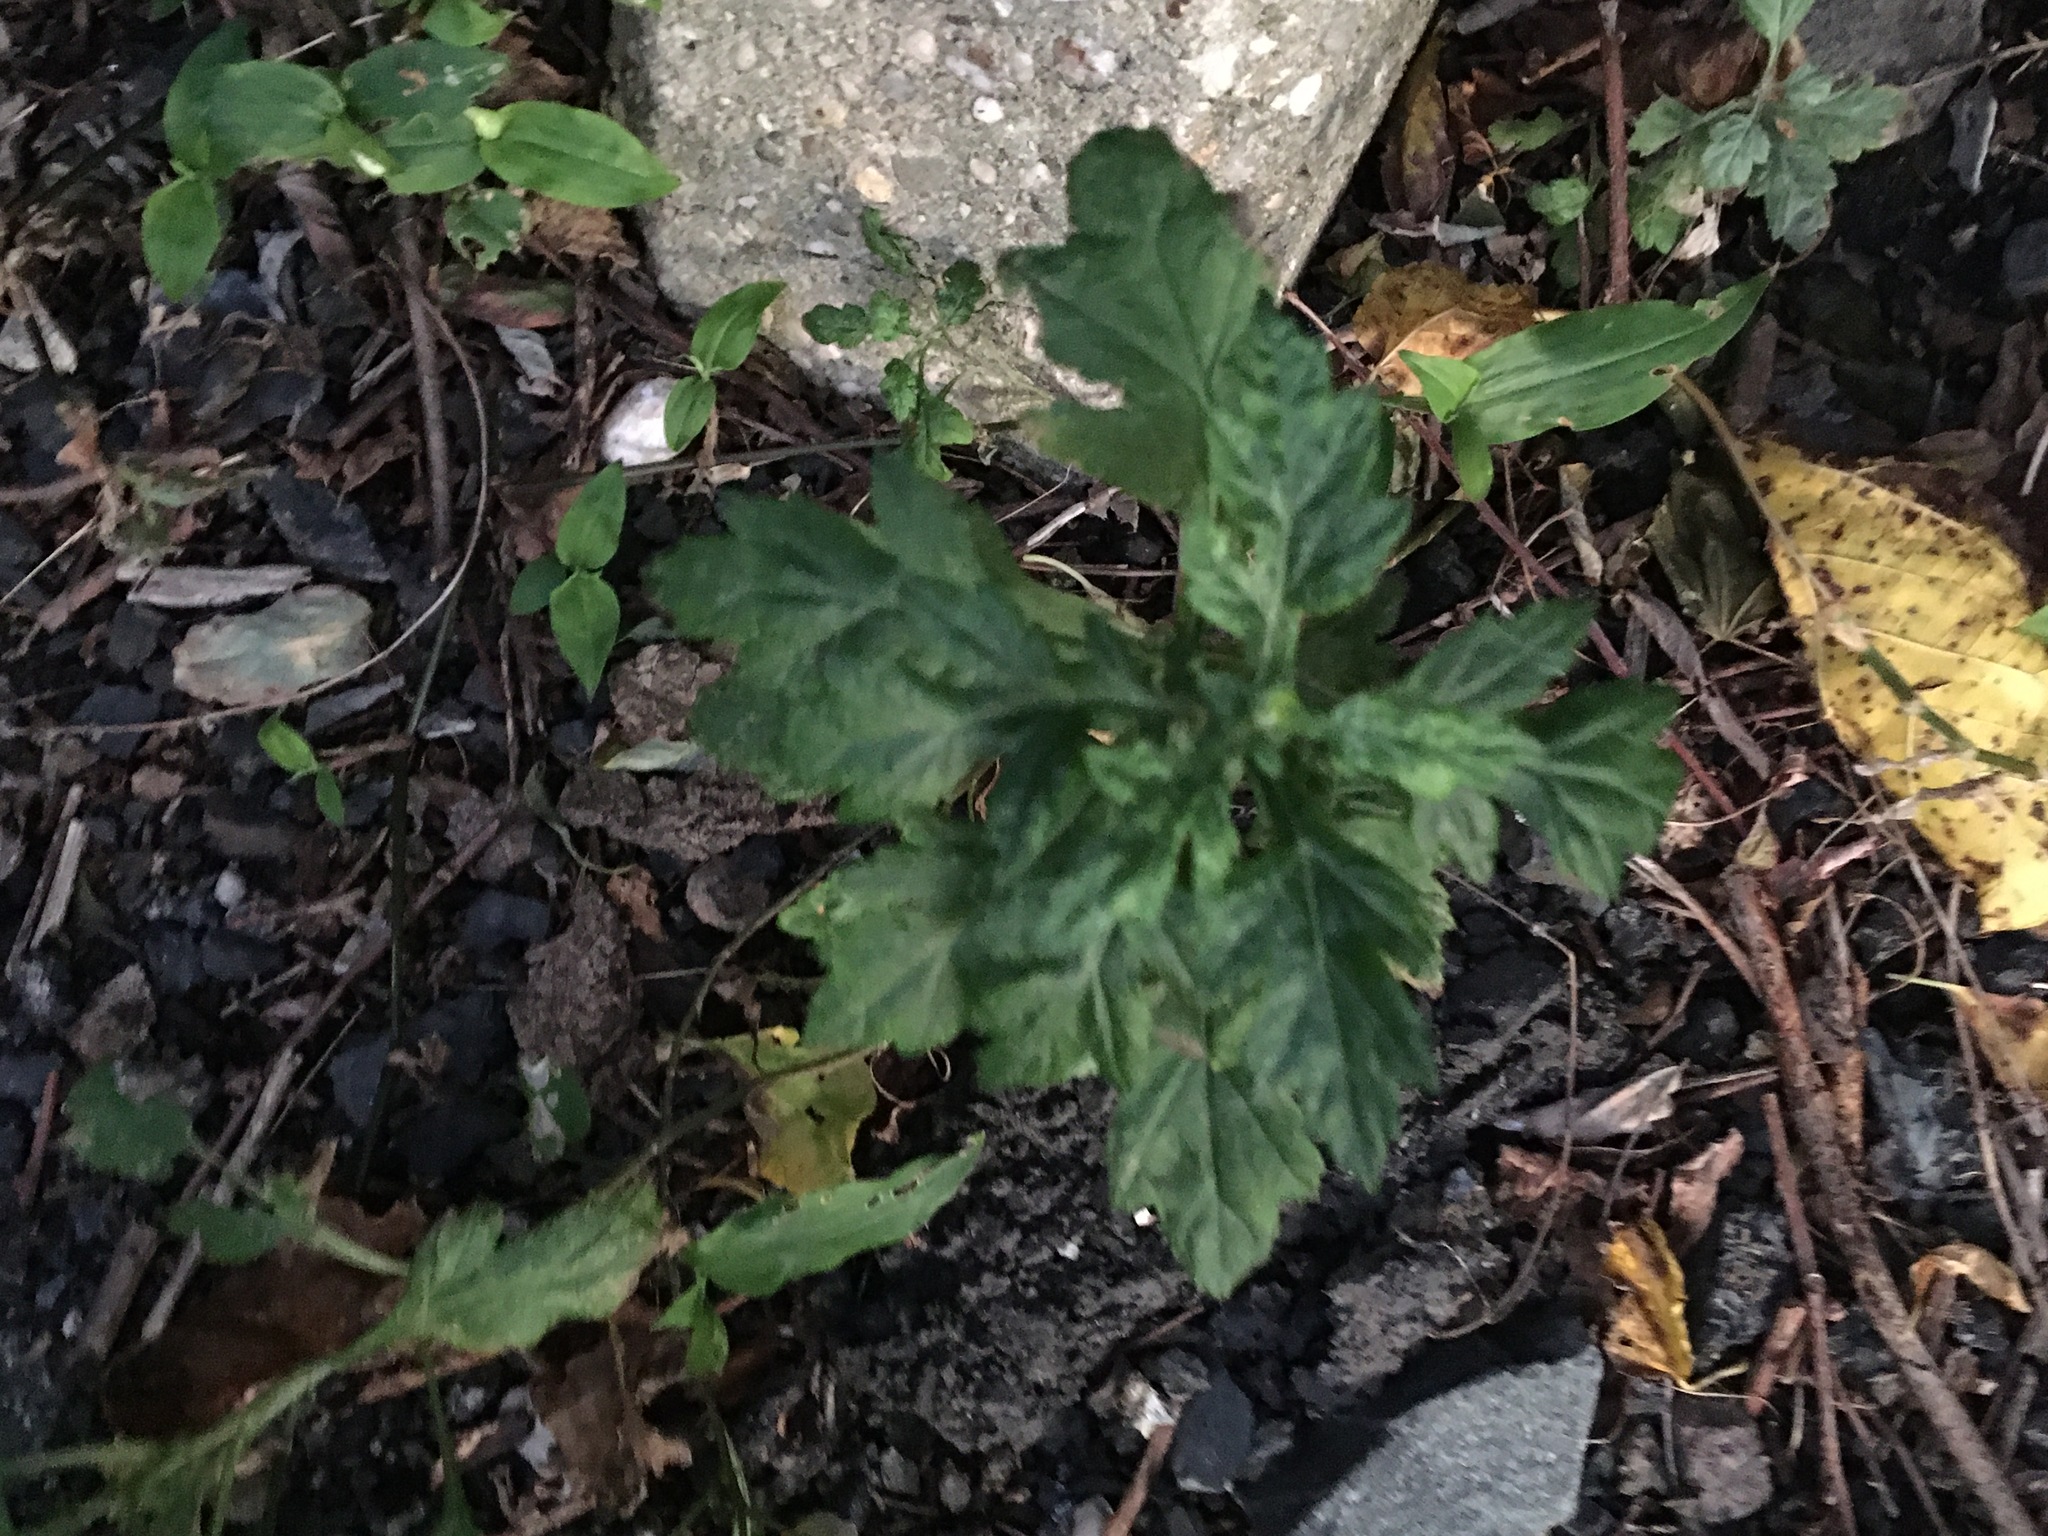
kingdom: Plantae
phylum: Tracheophyta
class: Magnoliopsida
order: Asterales
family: Asteraceae
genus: Artemisia
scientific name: Artemisia vulgaris
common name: Mugwort
